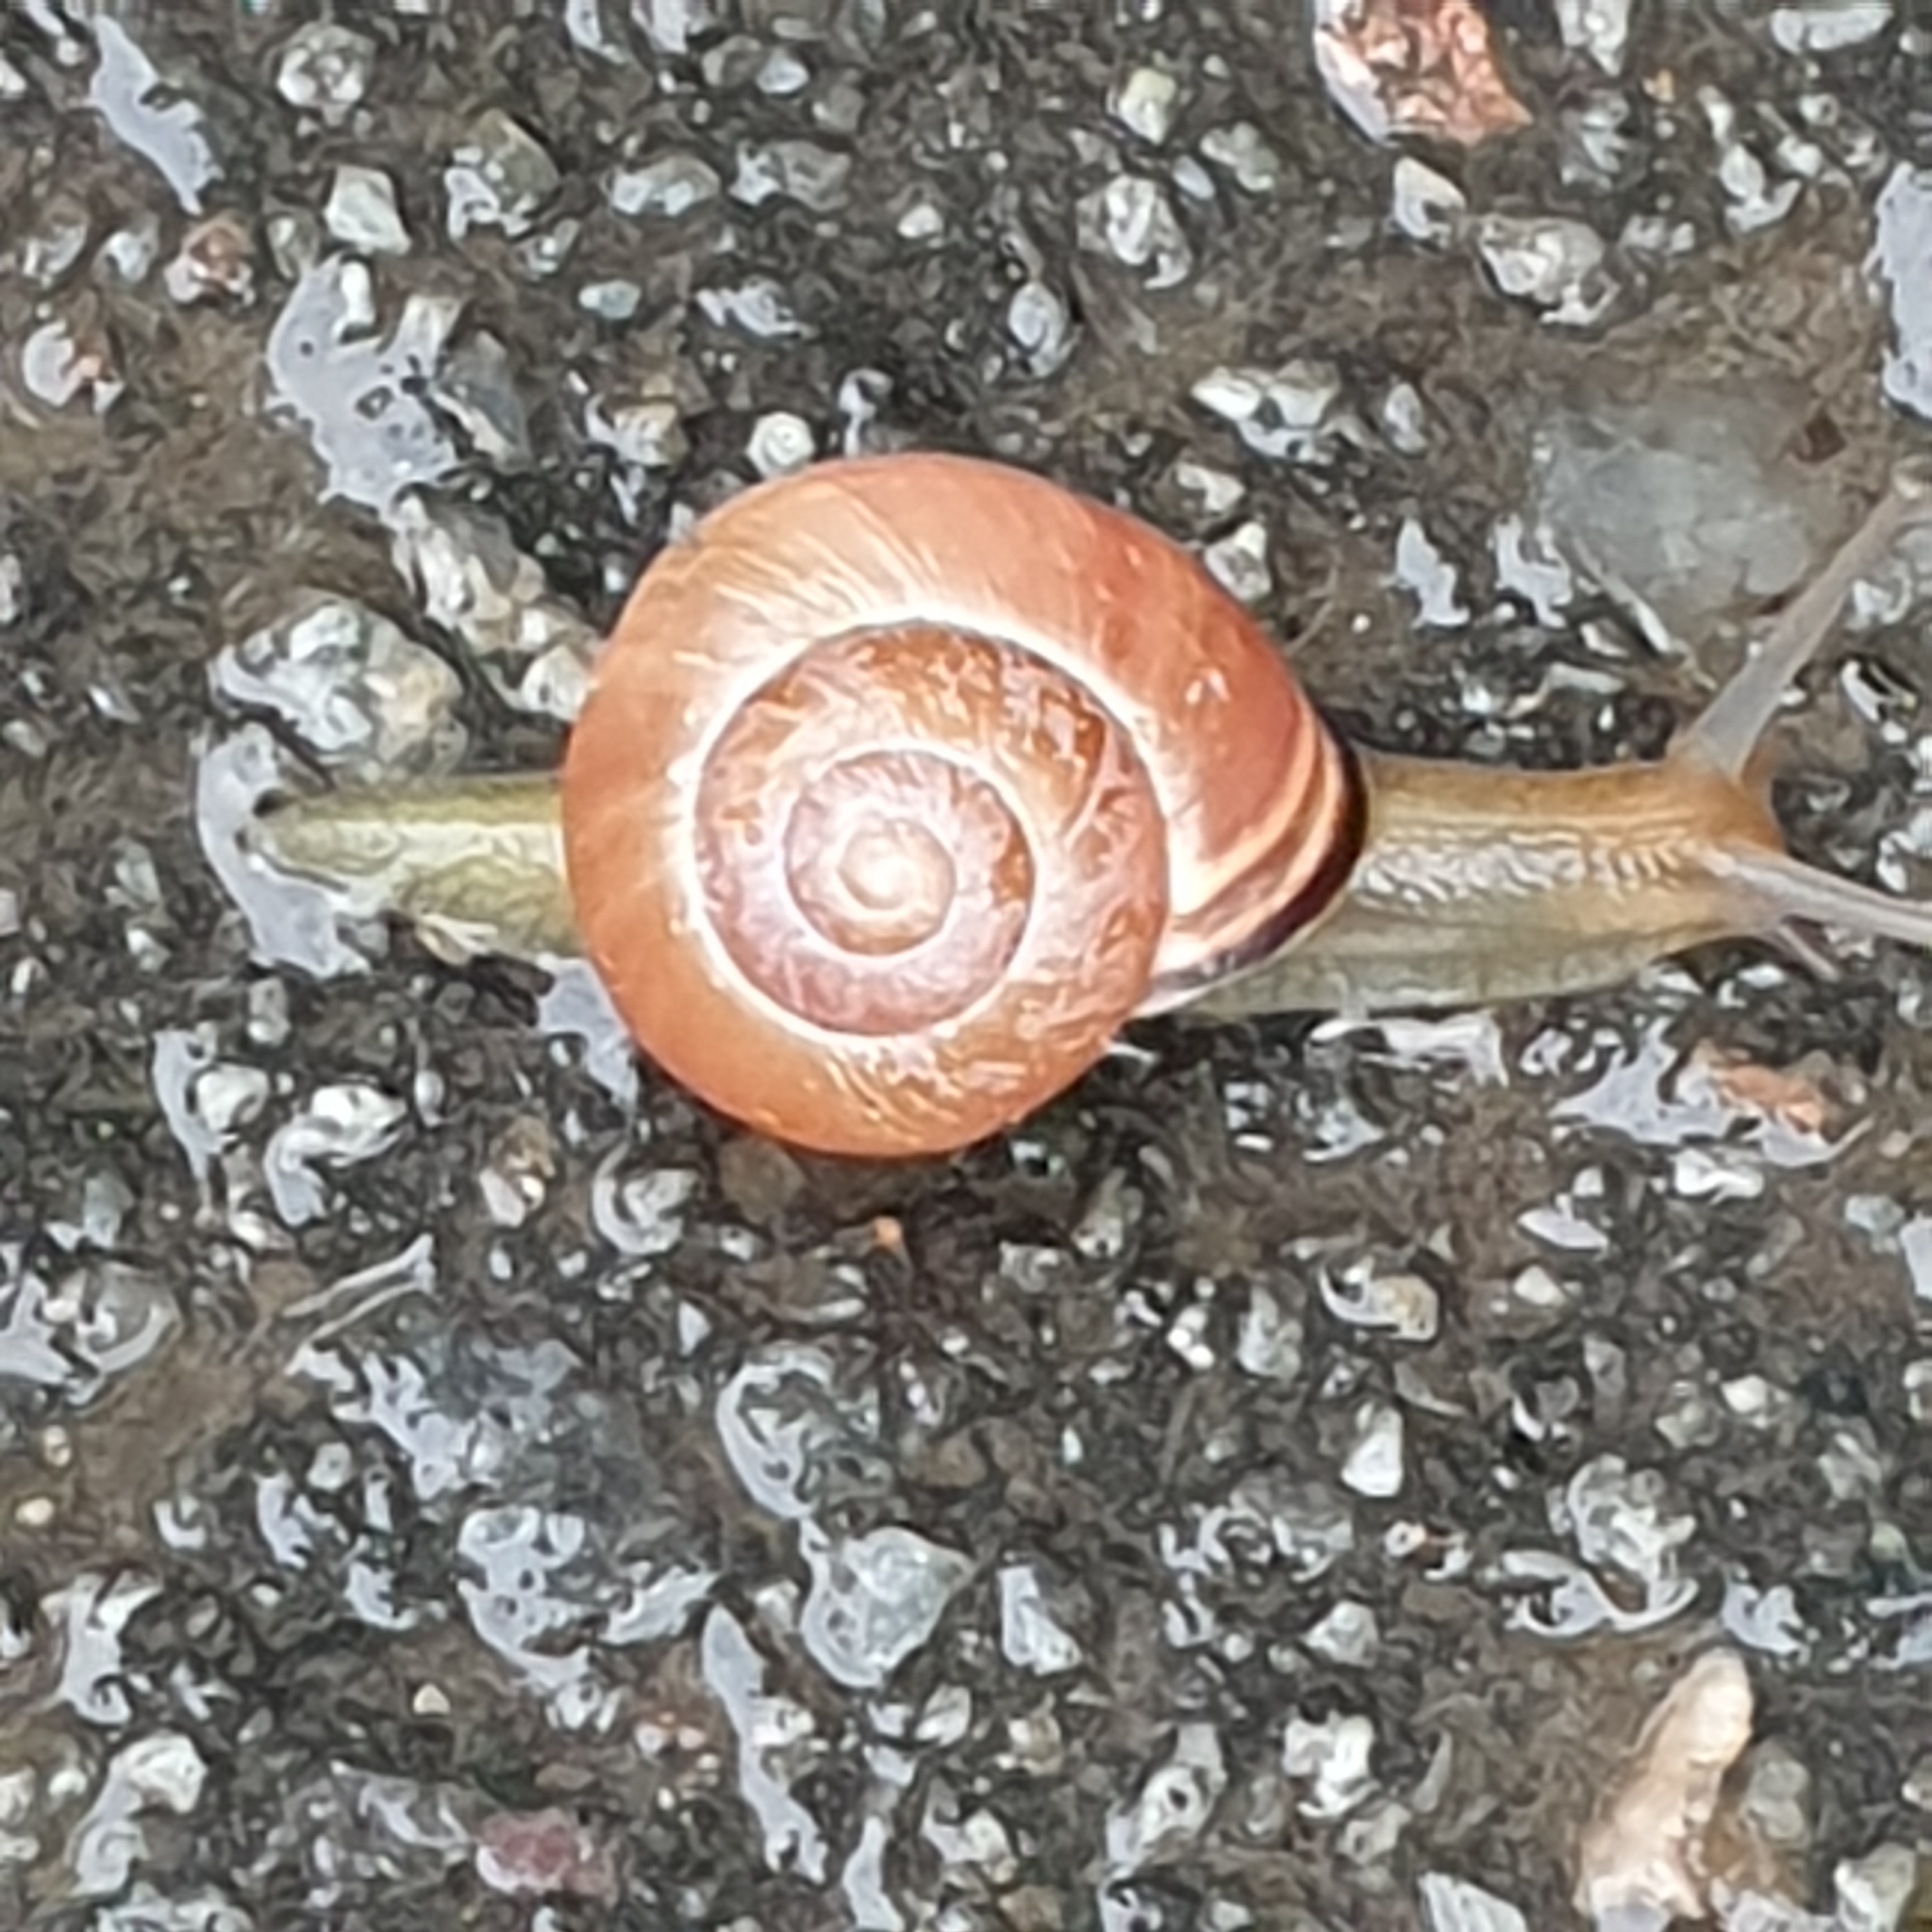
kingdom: Animalia
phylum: Mollusca
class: Gastropoda
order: Stylommatophora
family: Helicidae
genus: Cepaea
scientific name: Cepaea nemoralis
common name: Grovesnail
